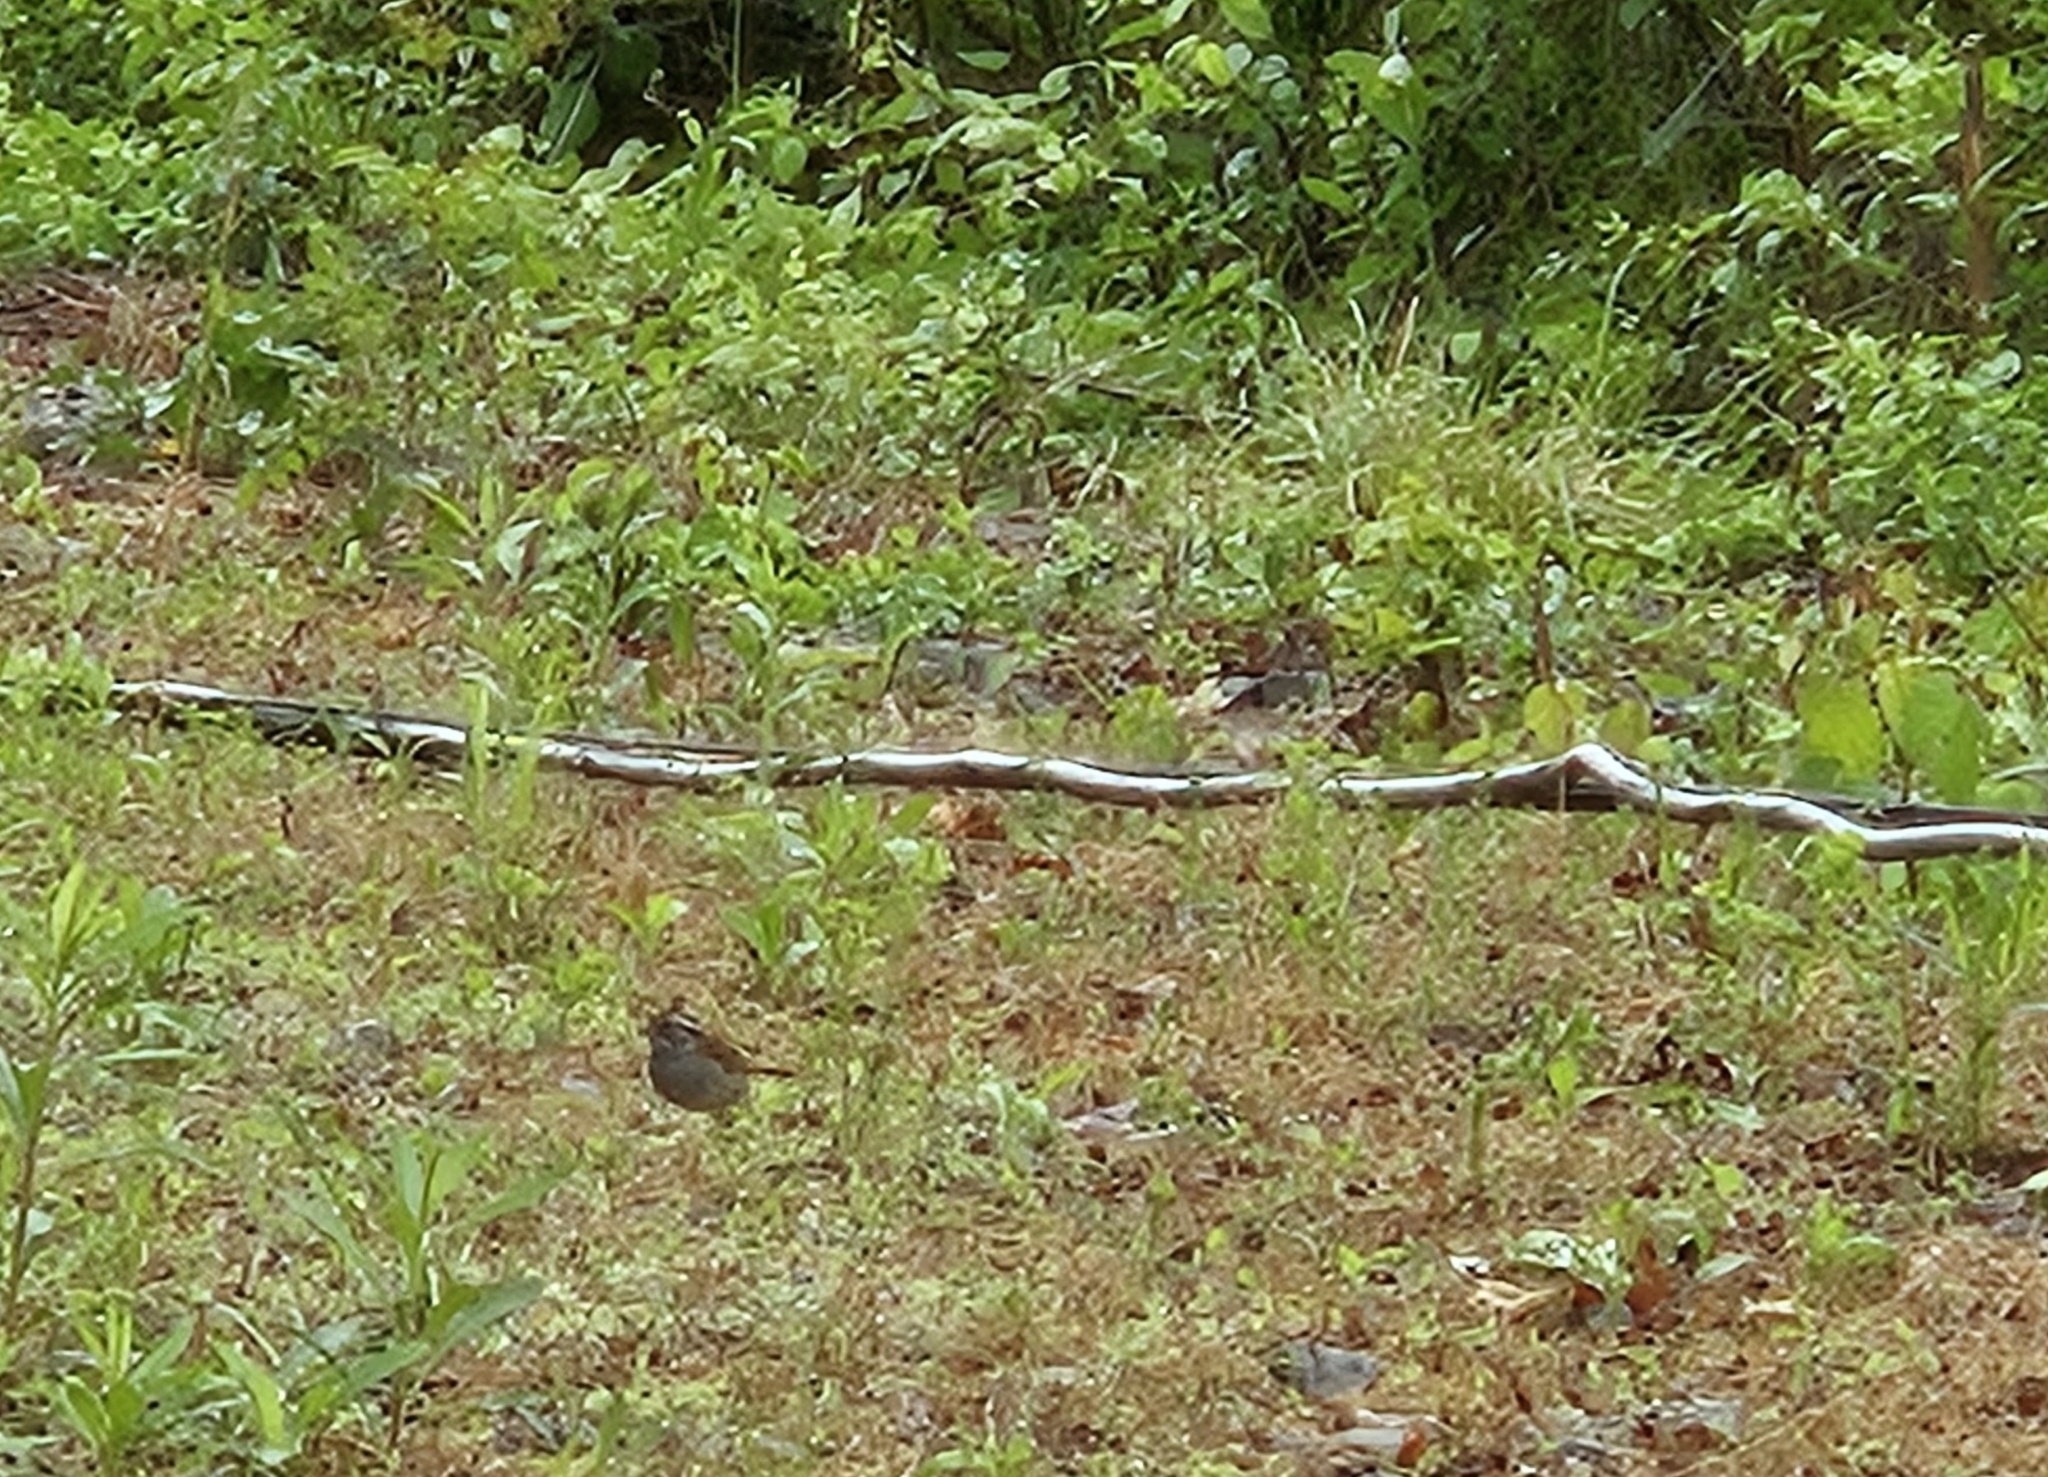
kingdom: Animalia
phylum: Chordata
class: Aves
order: Passeriformes
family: Passerellidae
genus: Zonotrichia
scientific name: Zonotrichia albicollis
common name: White-throated sparrow
